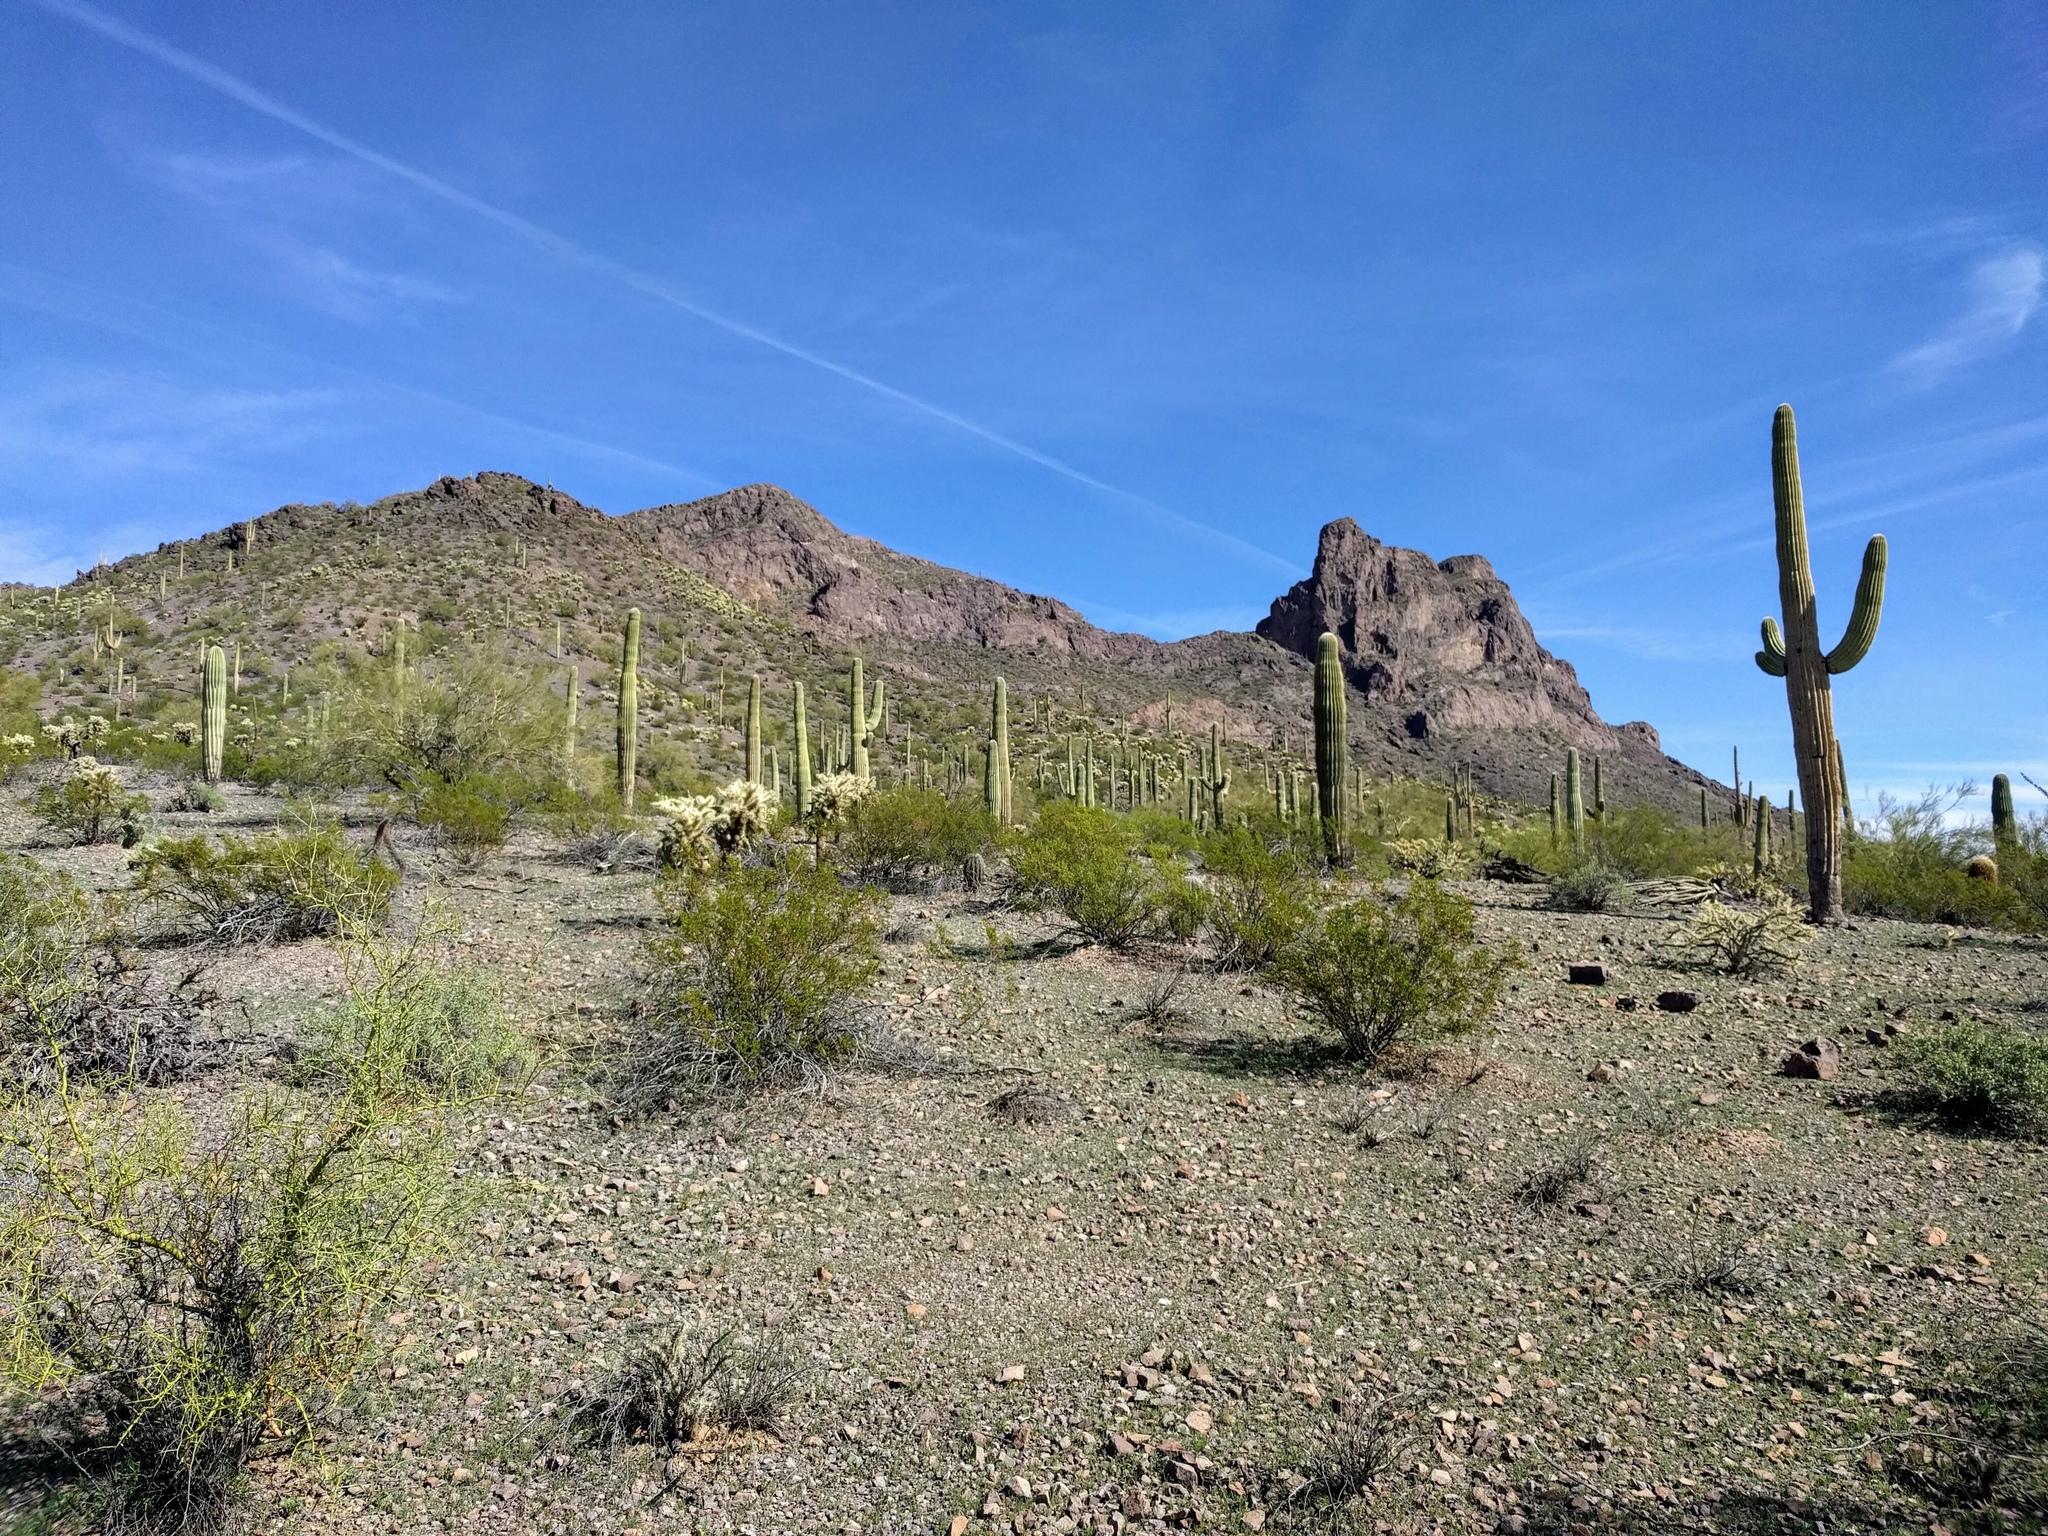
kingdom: Plantae
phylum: Tracheophyta
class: Magnoliopsida
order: Caryophyllales
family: Cactaceae
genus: Carnegiea
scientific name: Carnegiea gigantea
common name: Saguaro
